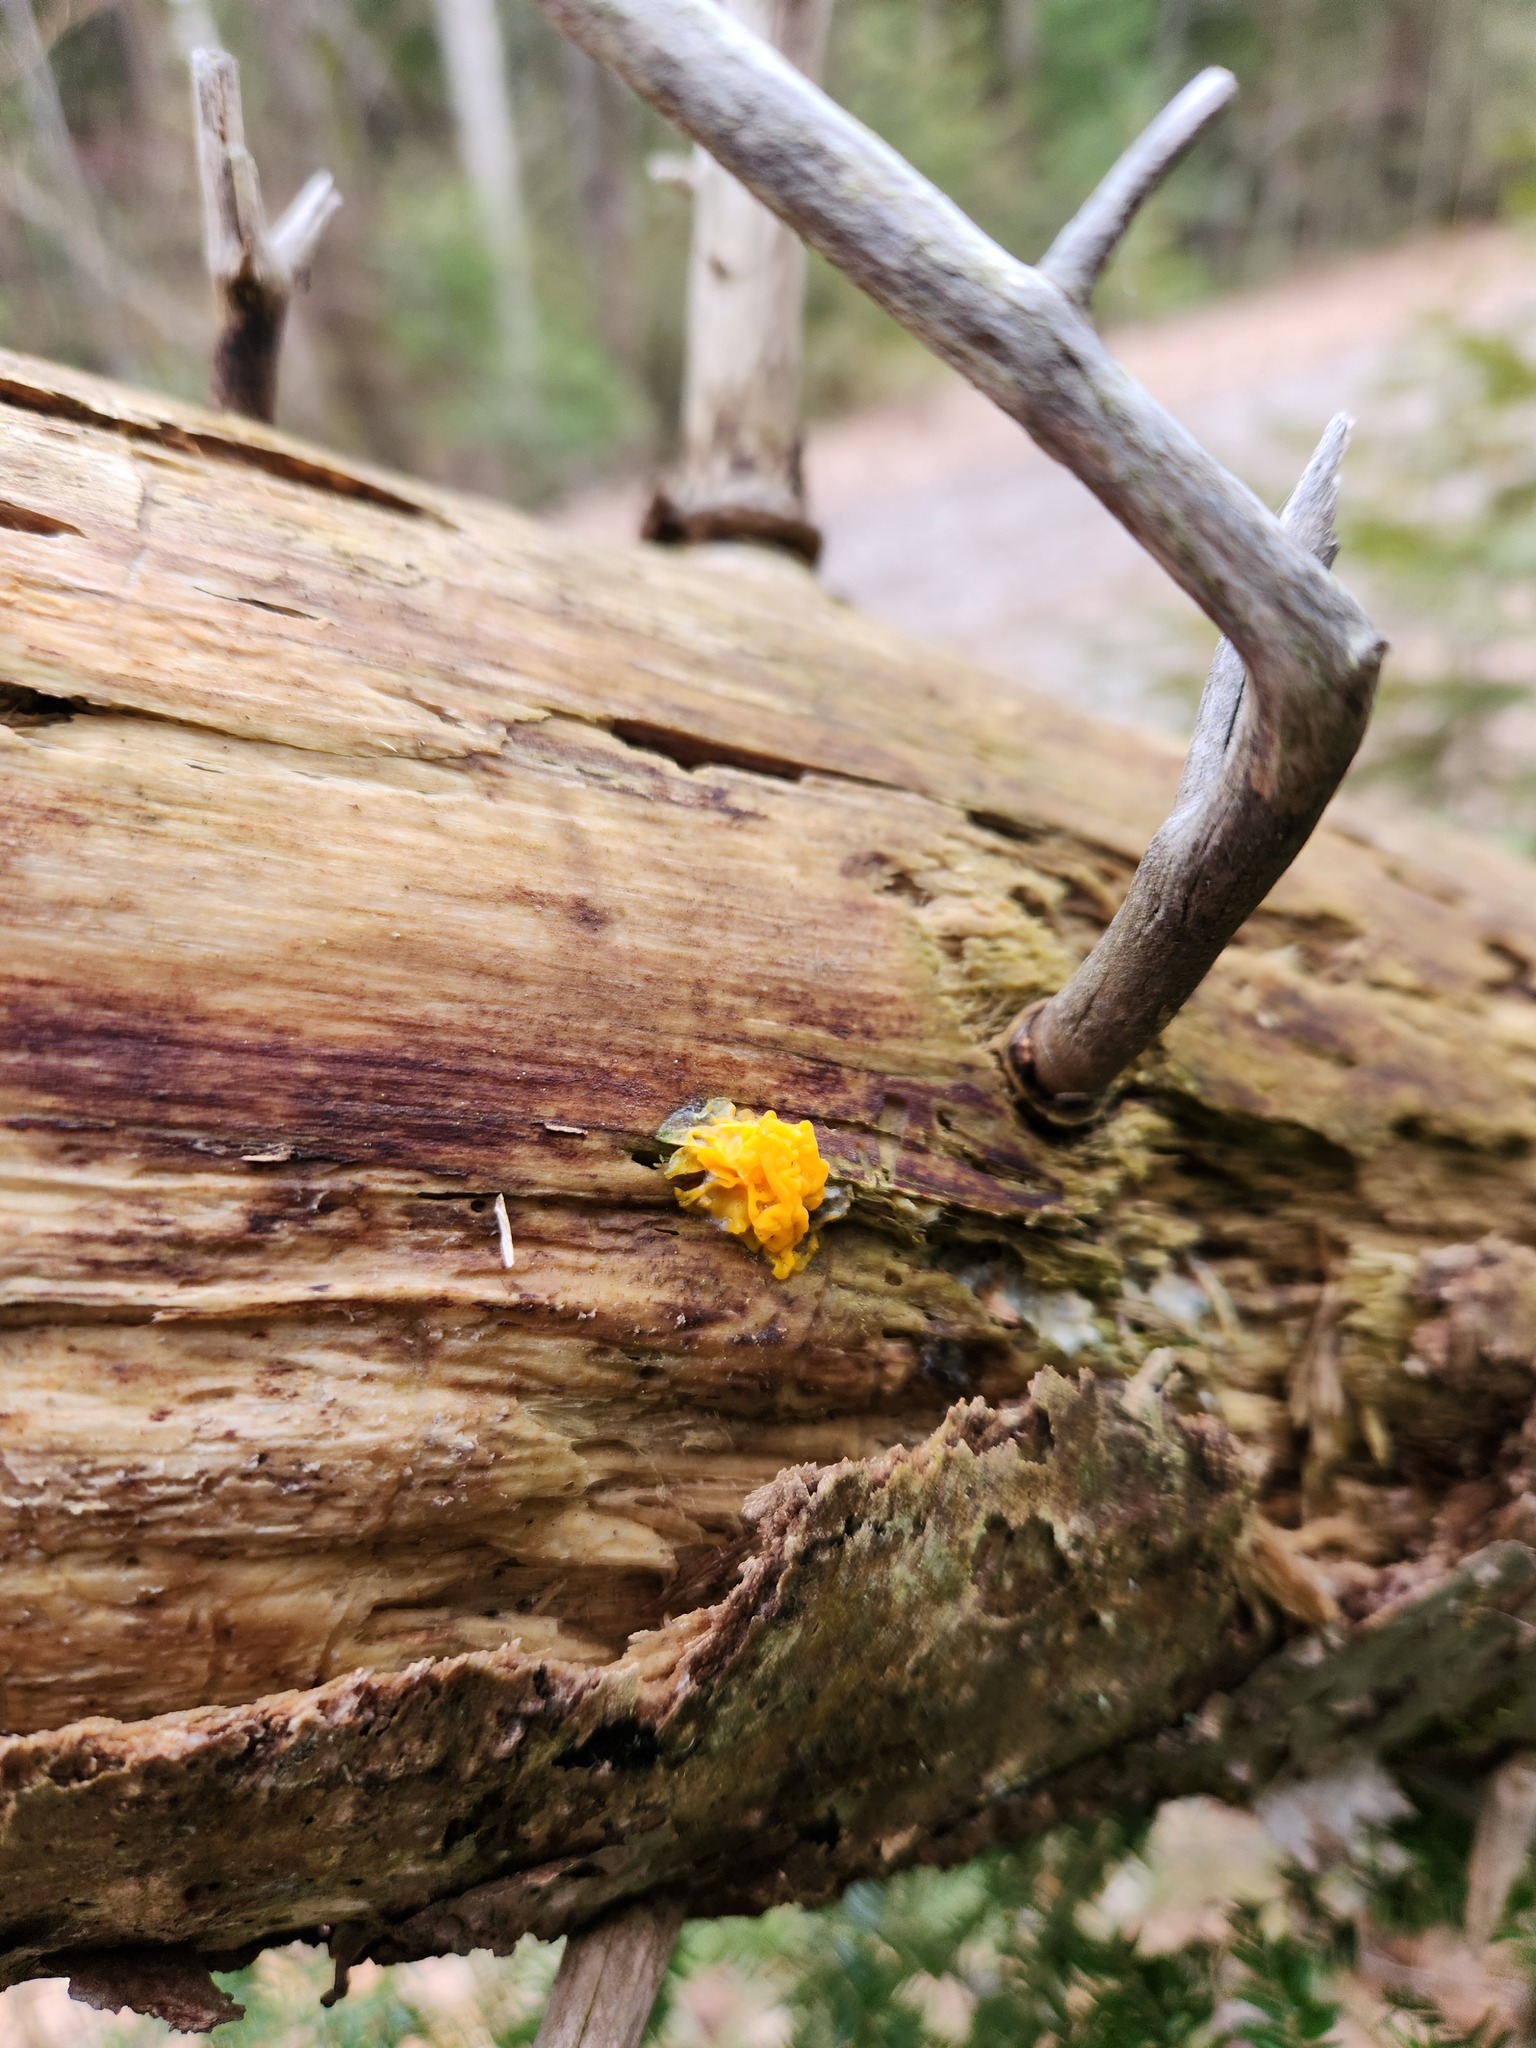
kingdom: Fungi
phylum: Basidiomycota
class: Dacrymycetes
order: Dacrymycetales
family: Dacrymycetaceae
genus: Dacrymyces
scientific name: Dacrymyces chrysospermus
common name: Orange jelly spot
